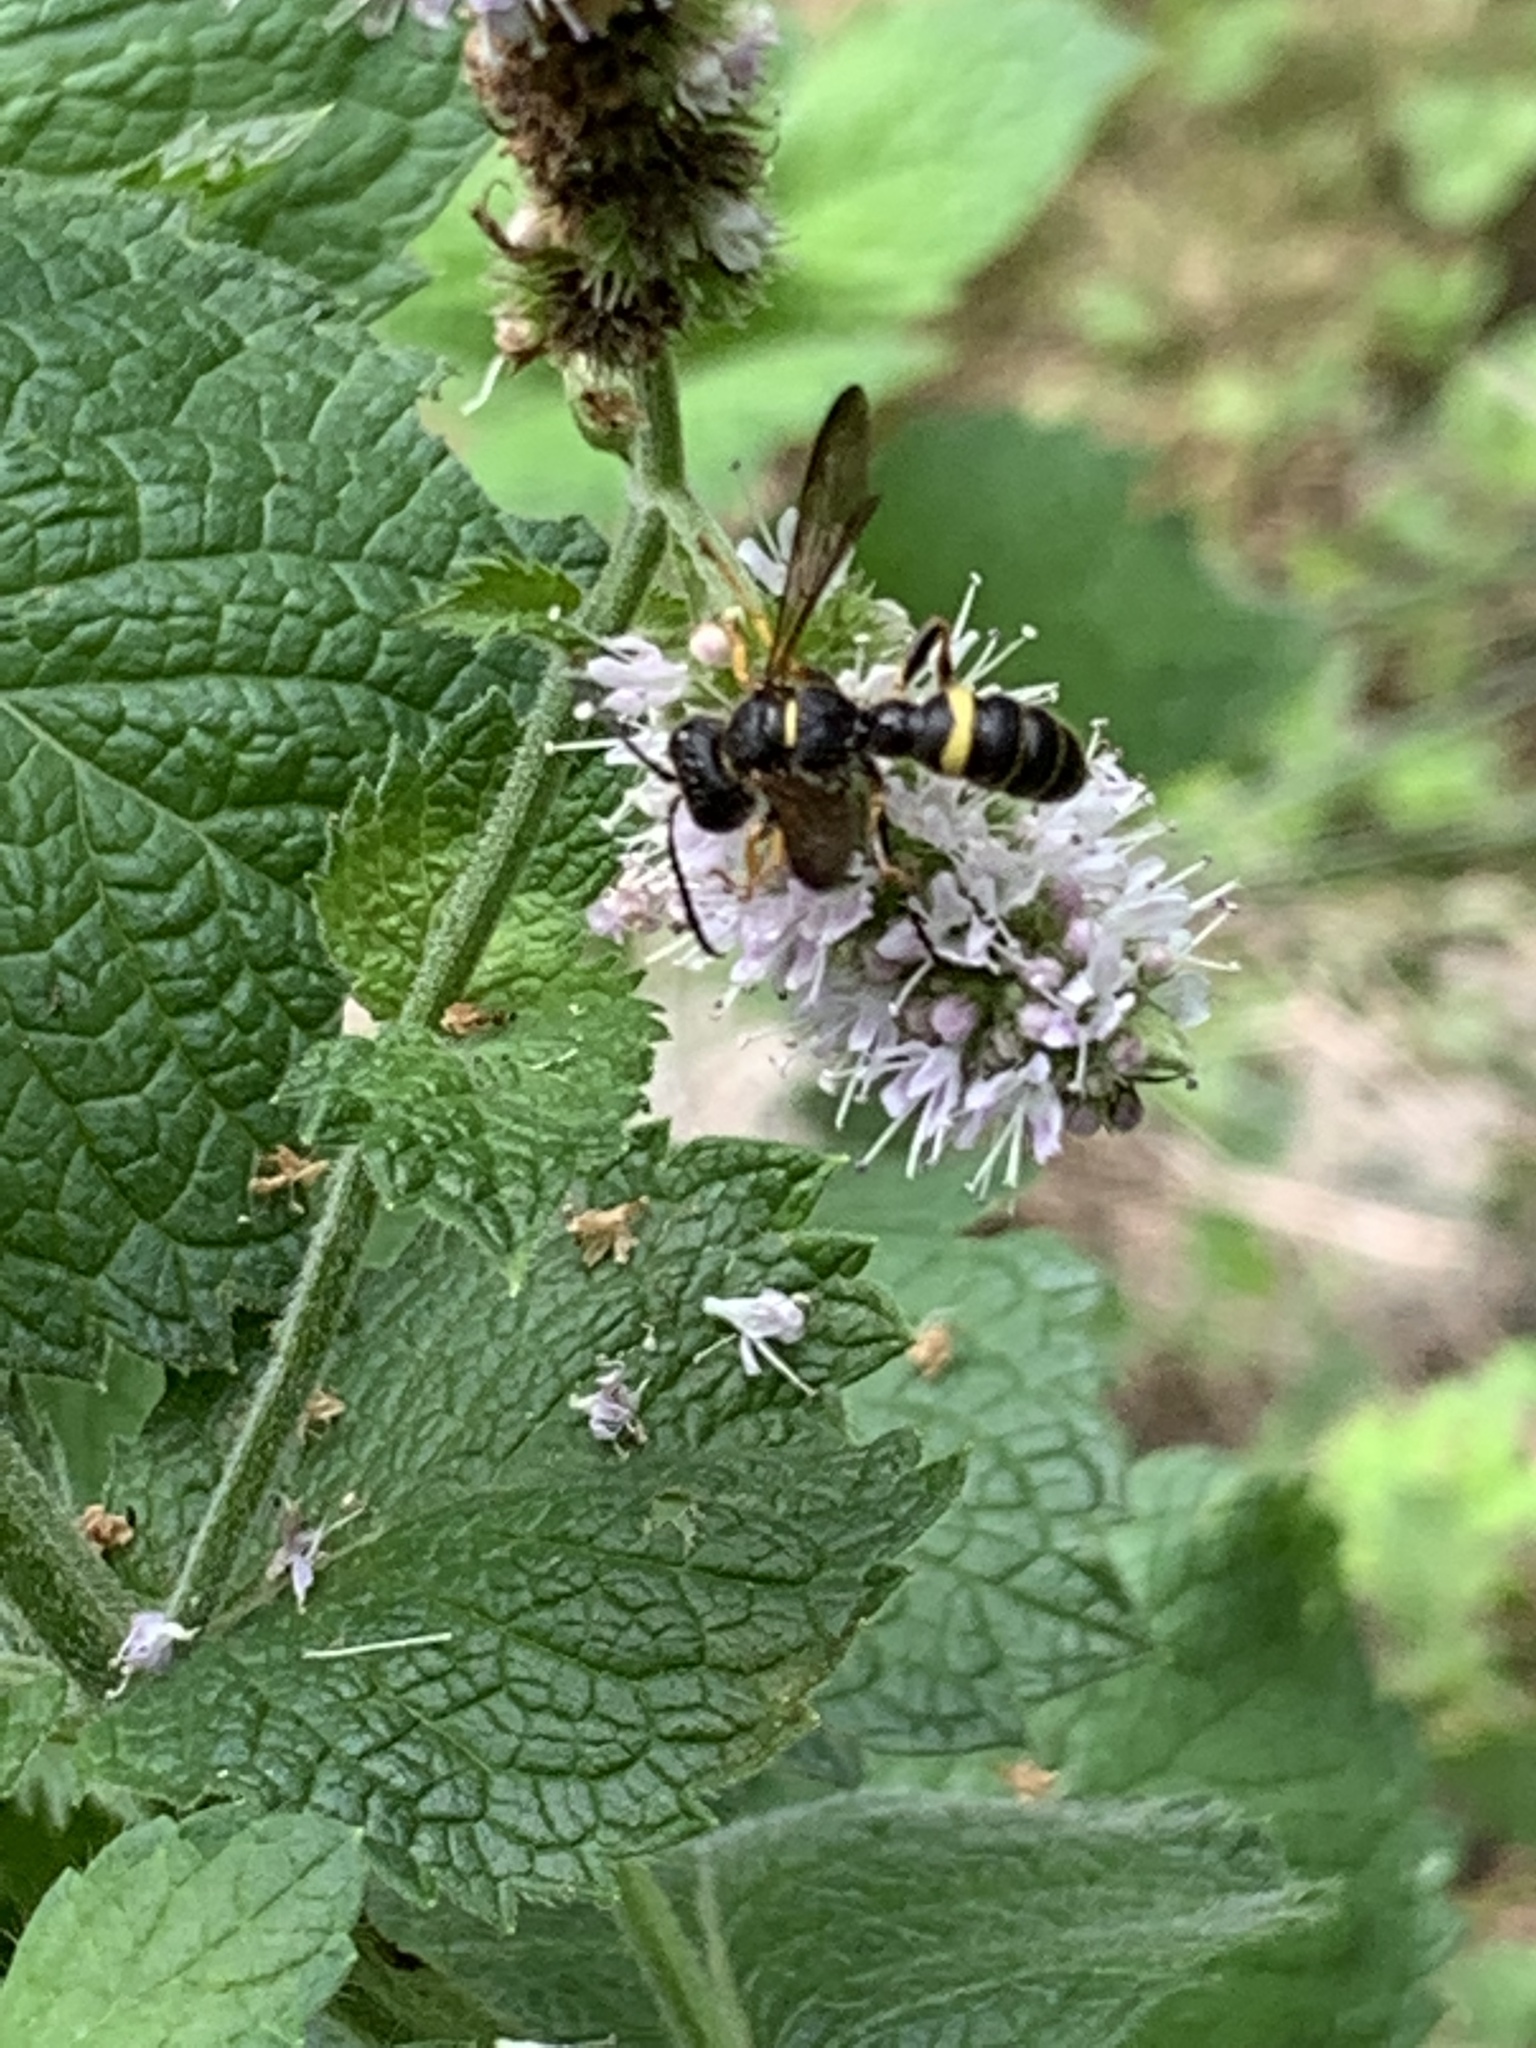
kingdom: Animalia
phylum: Arthropoda
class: Insecta
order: Hymenoptera
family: Crabronidae
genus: Cerceris
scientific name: Cerceris fumipennis
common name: Smokey-winged beetle bandit wasp
